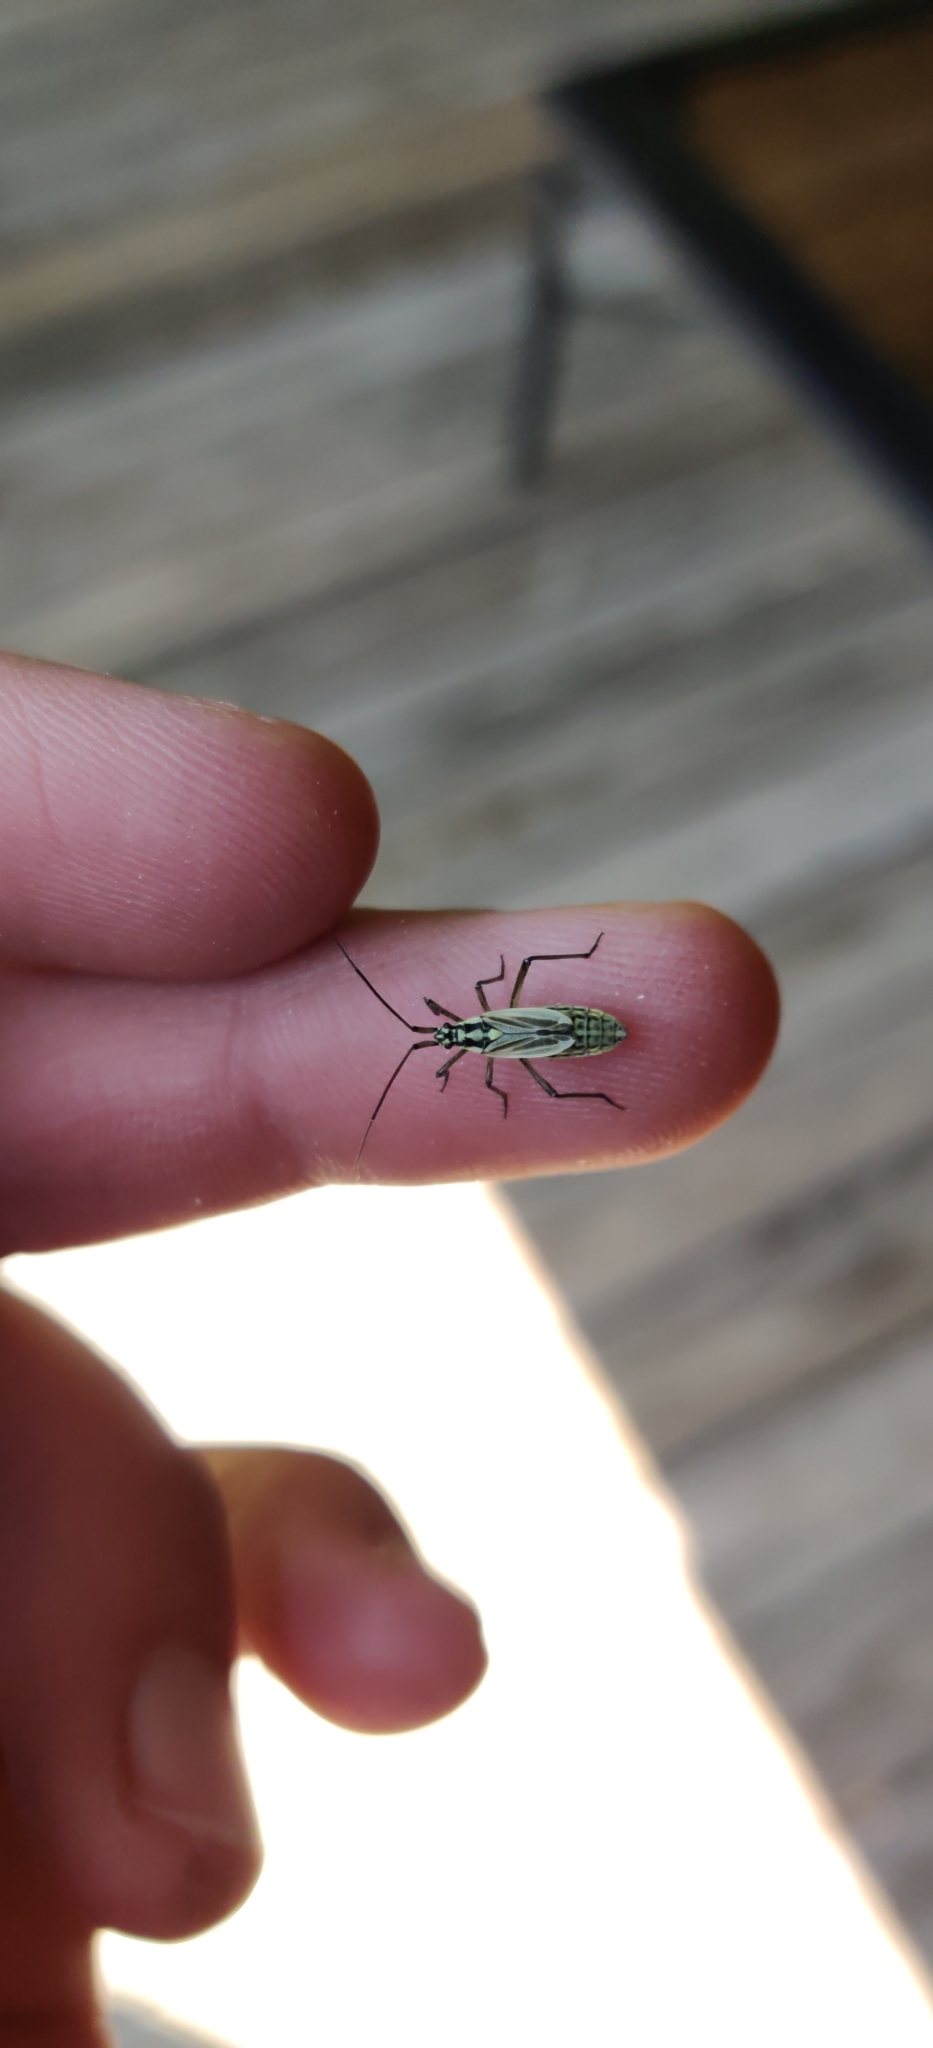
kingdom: Animalia
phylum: Arthropoda
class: Insecta
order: Hemiptera
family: Miridae
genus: Leptopterna
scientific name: Leptopterna dolabrata
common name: Meadow plant bug
